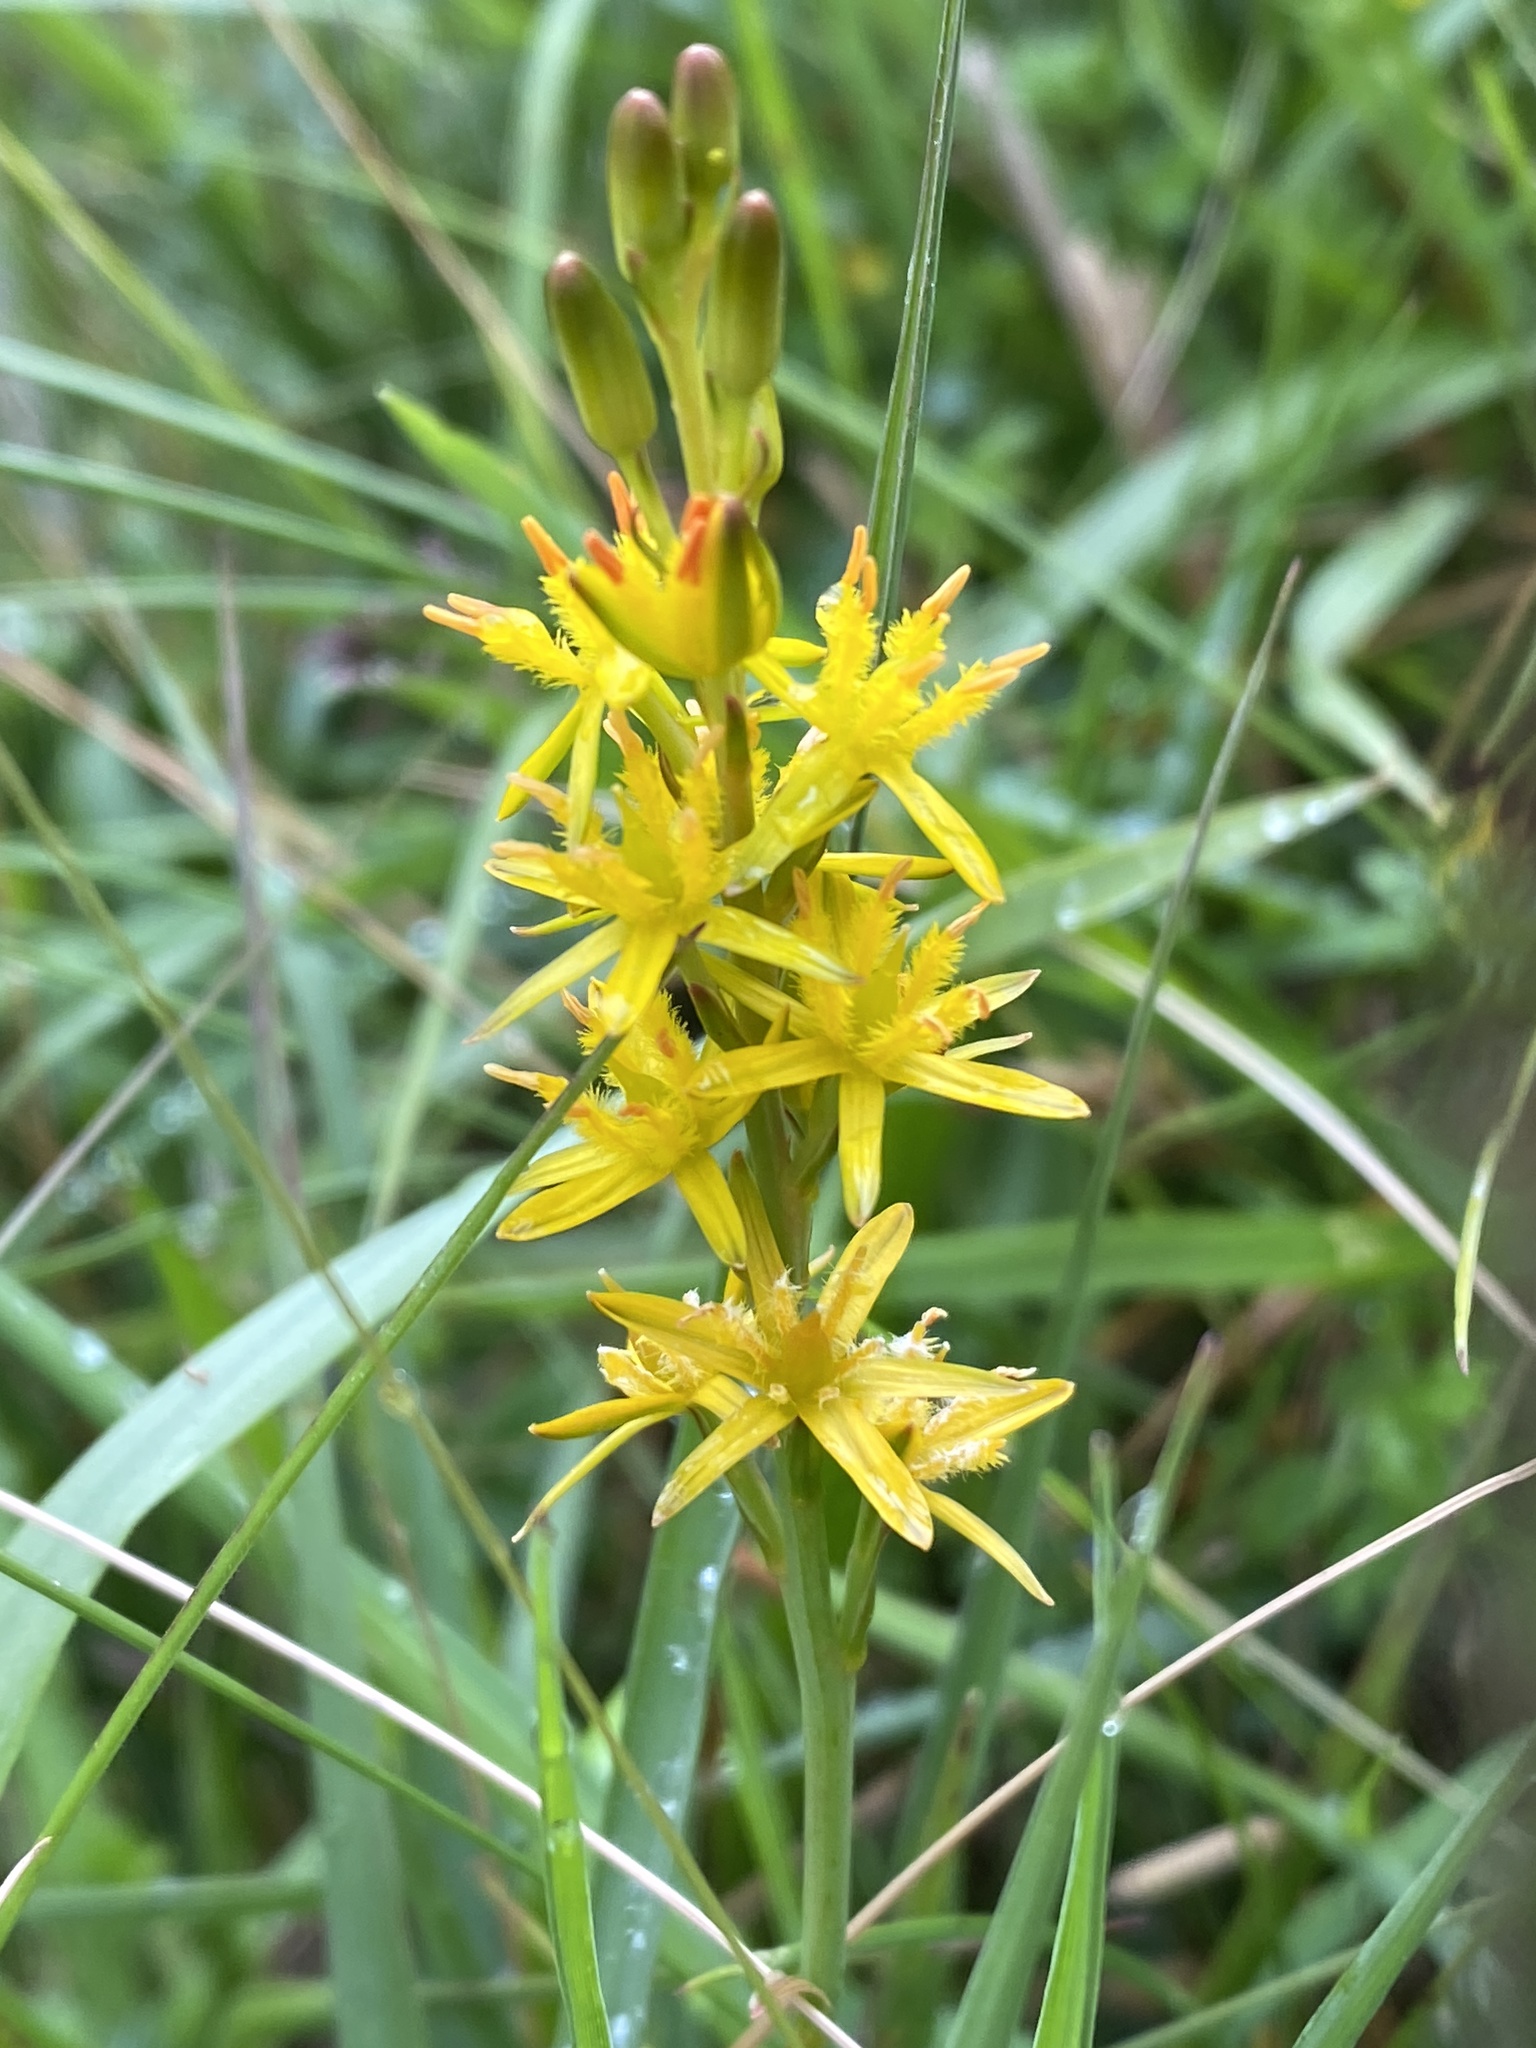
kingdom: Plantae
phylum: Tracheophyta
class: Liliopsida
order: Dioscoreales
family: Nartheciaceae
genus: Narthecium
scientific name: Narthecium ossifragum
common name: Bog asphodel
